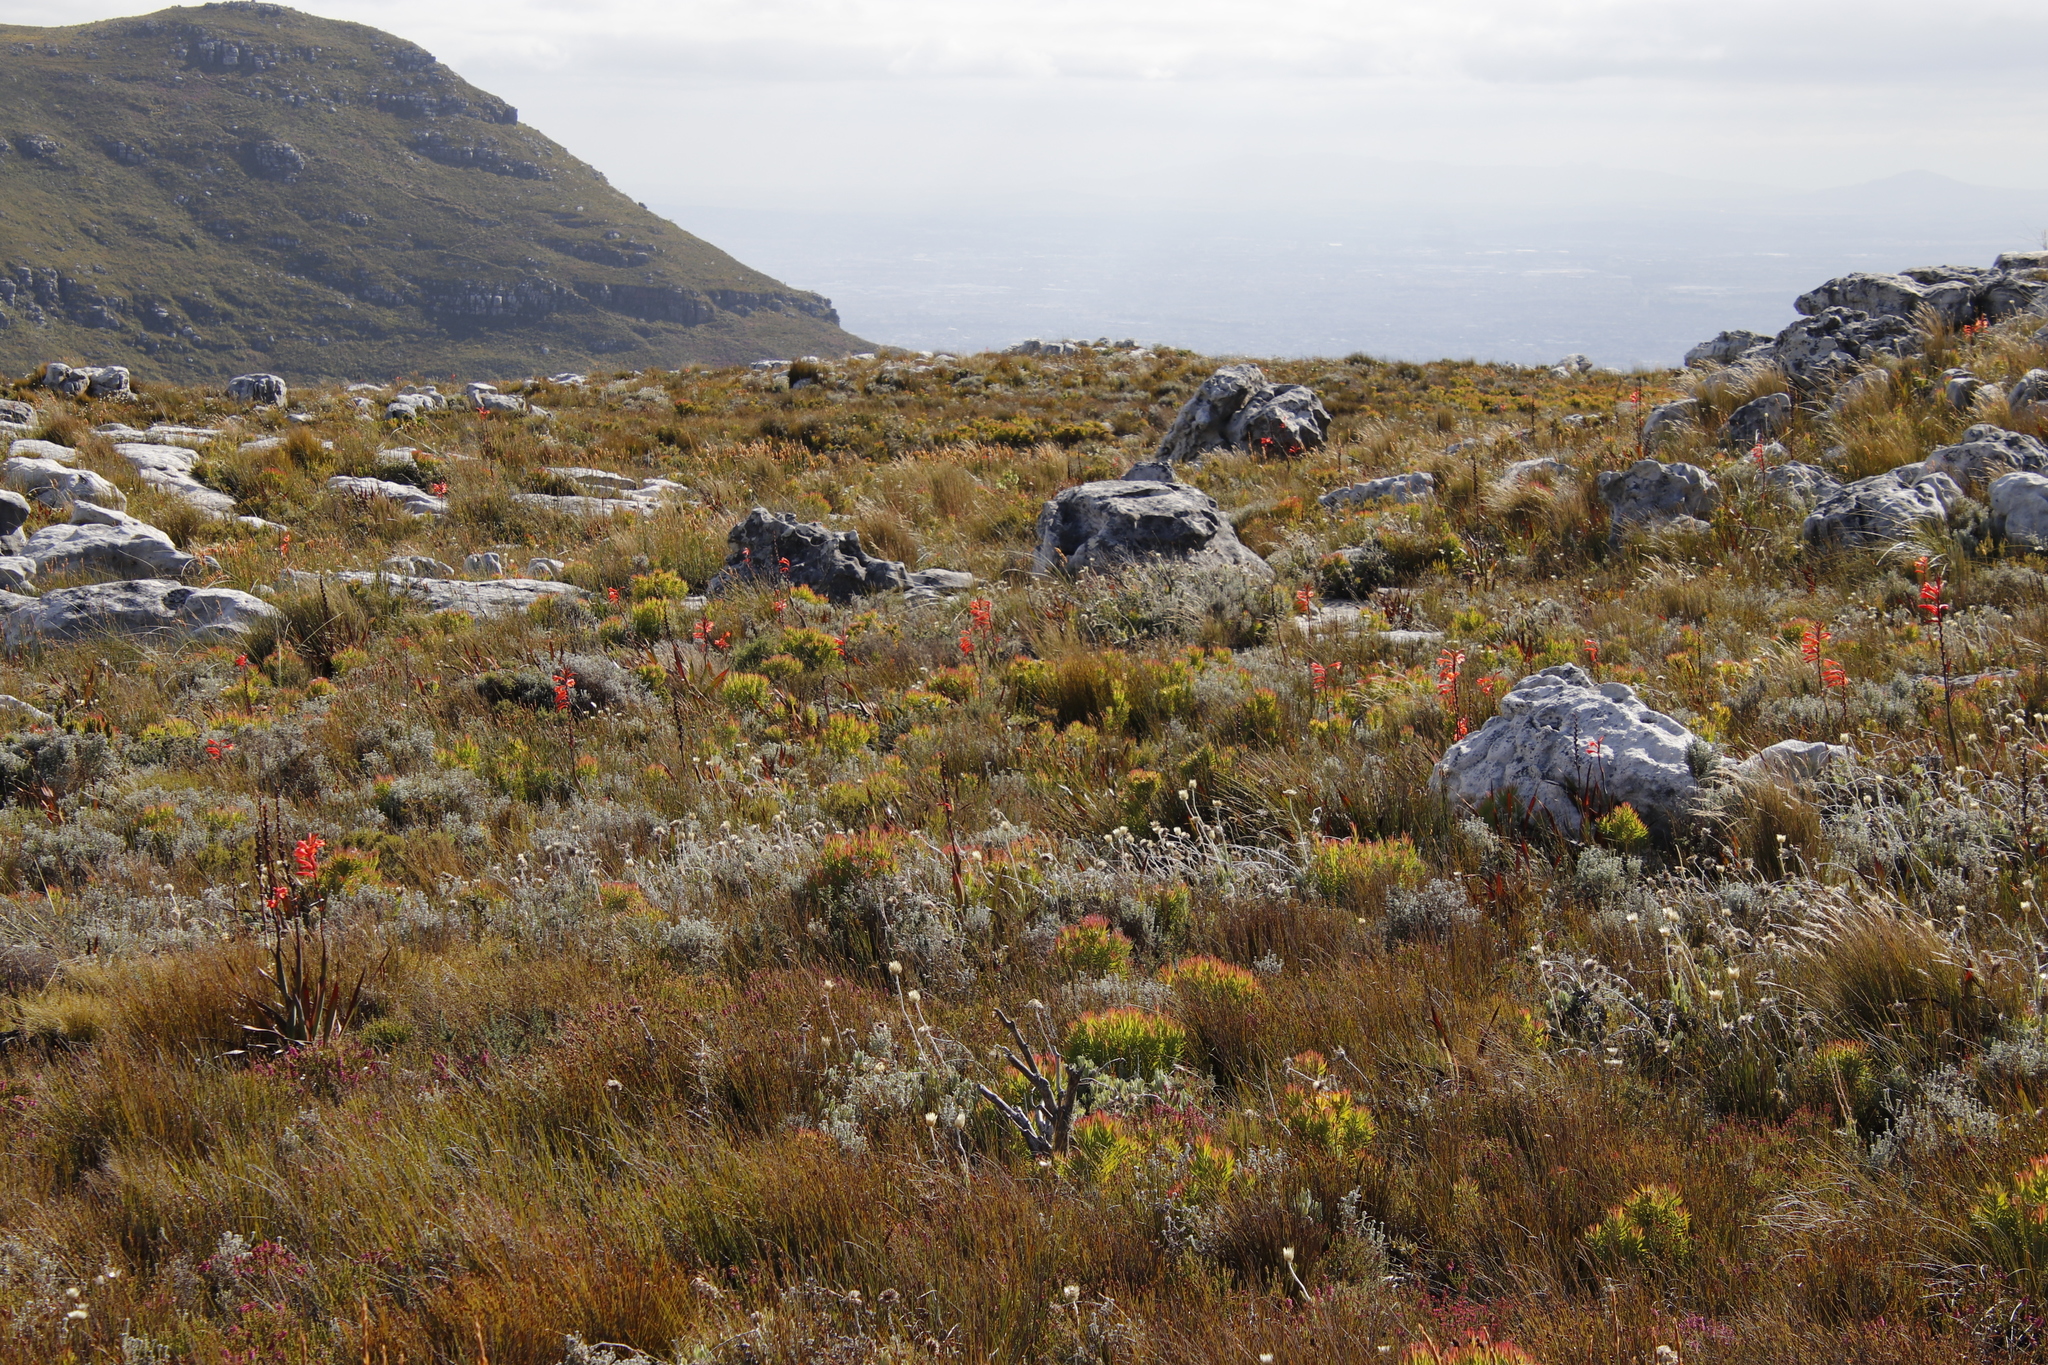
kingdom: Plantae
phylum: Tracheophyta
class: Liliopsida
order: Asparagales
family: Iridaceae
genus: Watsonia
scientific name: Watsonia tabularis
